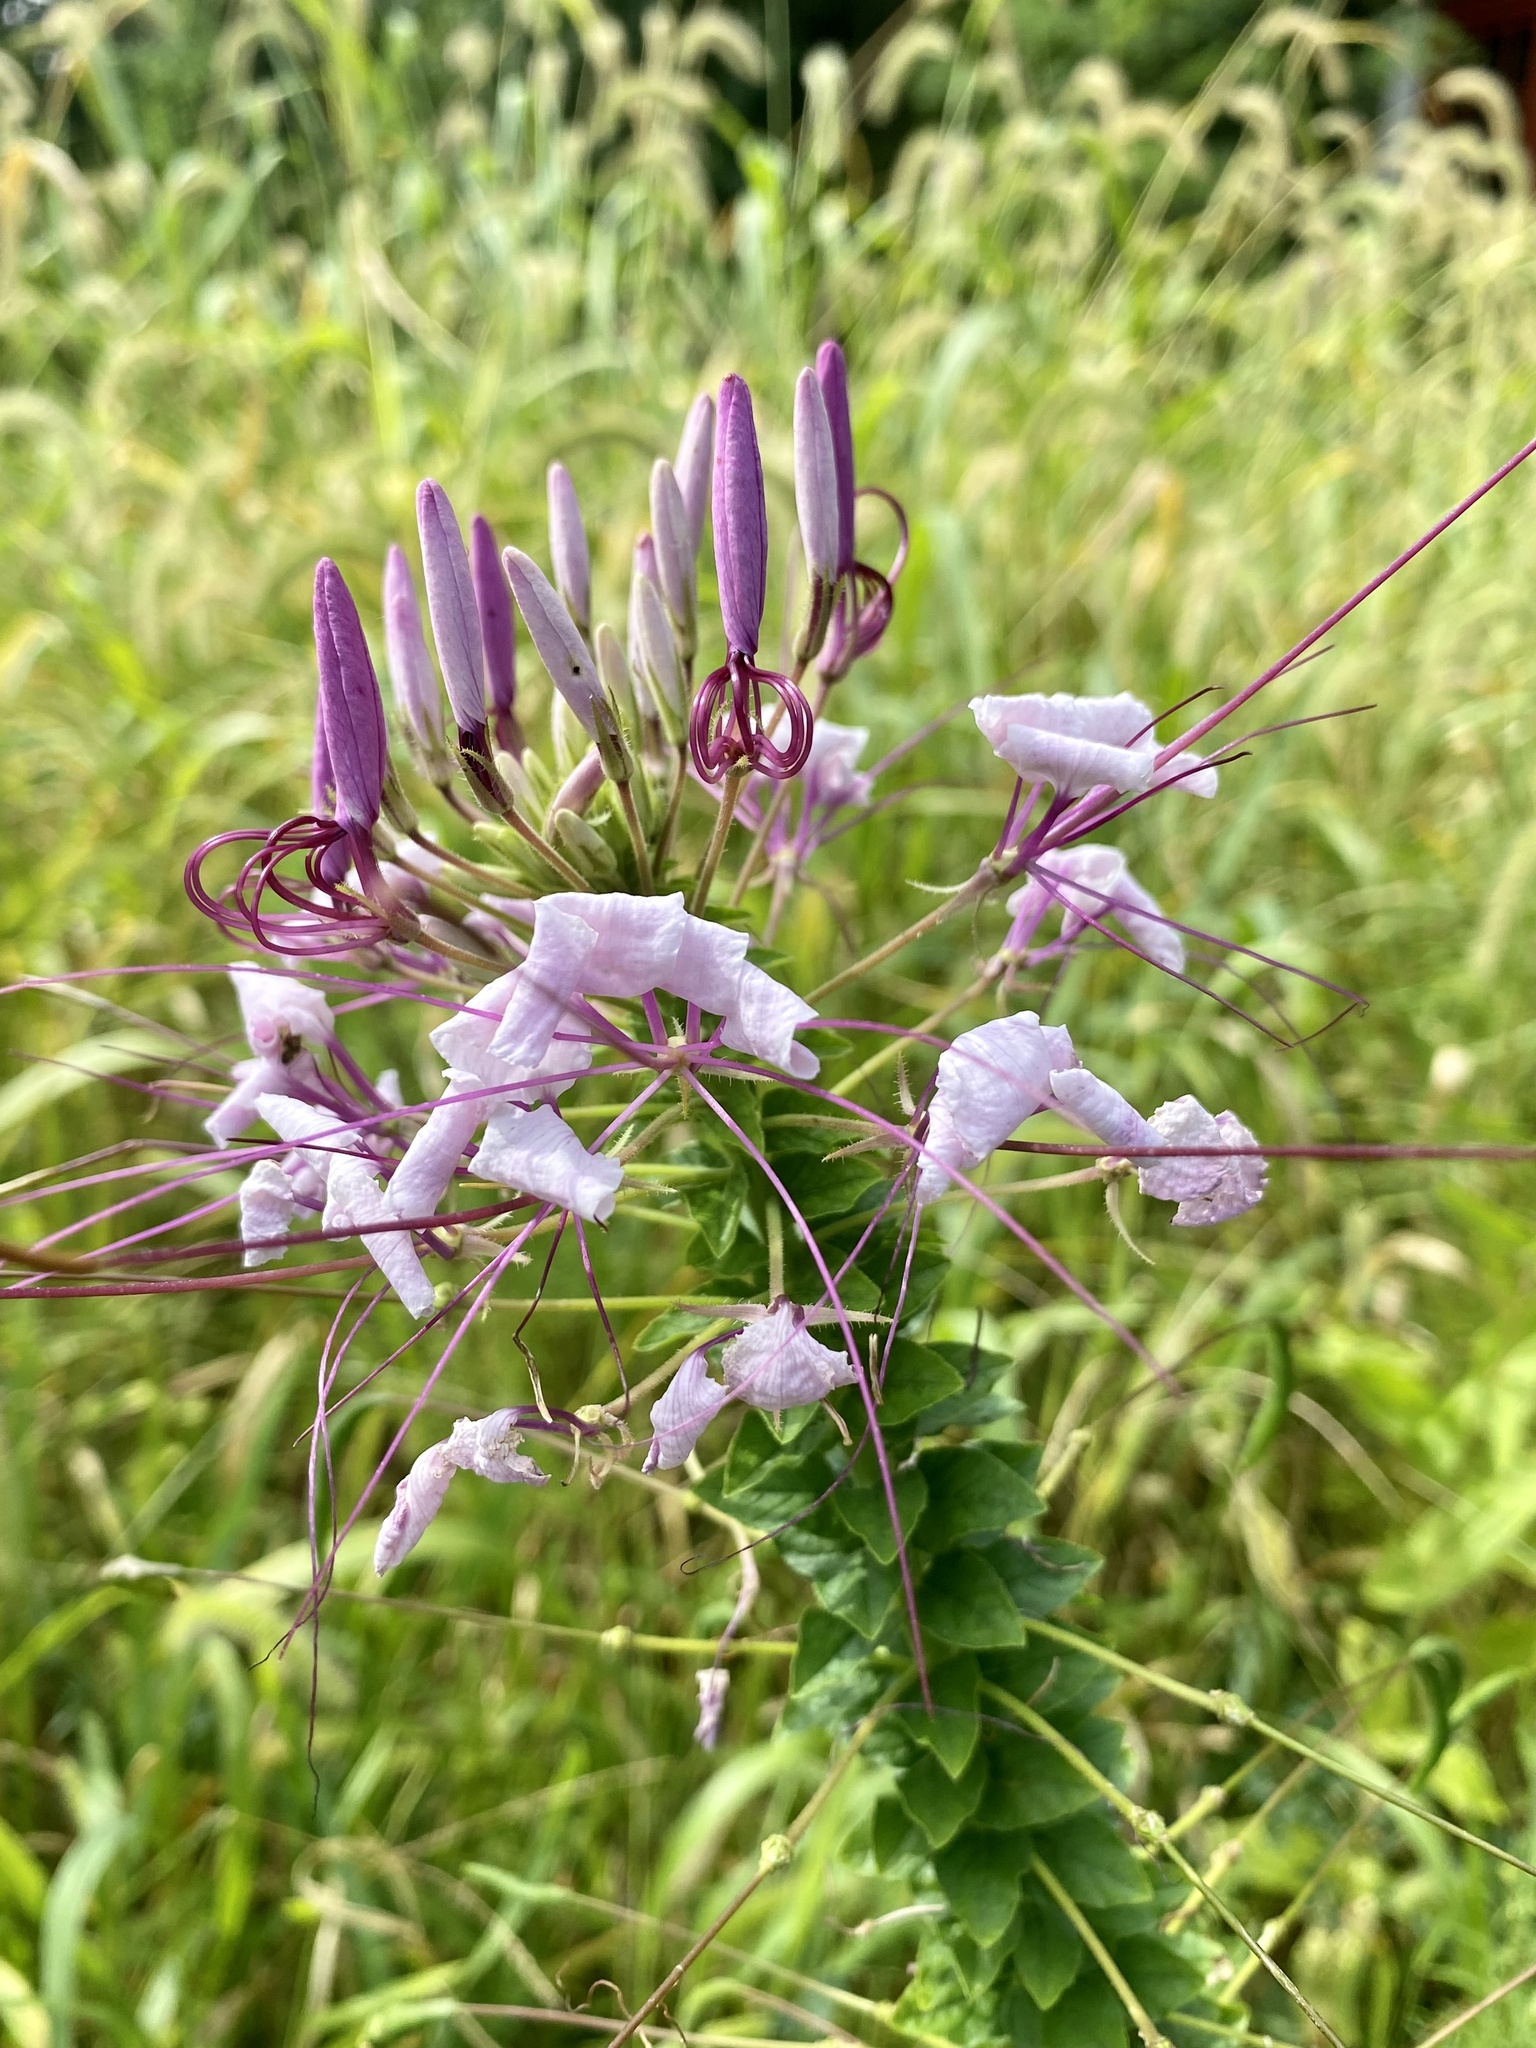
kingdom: Plantae
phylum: Tracheophyta
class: Magnoliopsida
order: Brassicales
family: Cleomaceae
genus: Tarenaya
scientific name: Tarenaya houtteana
